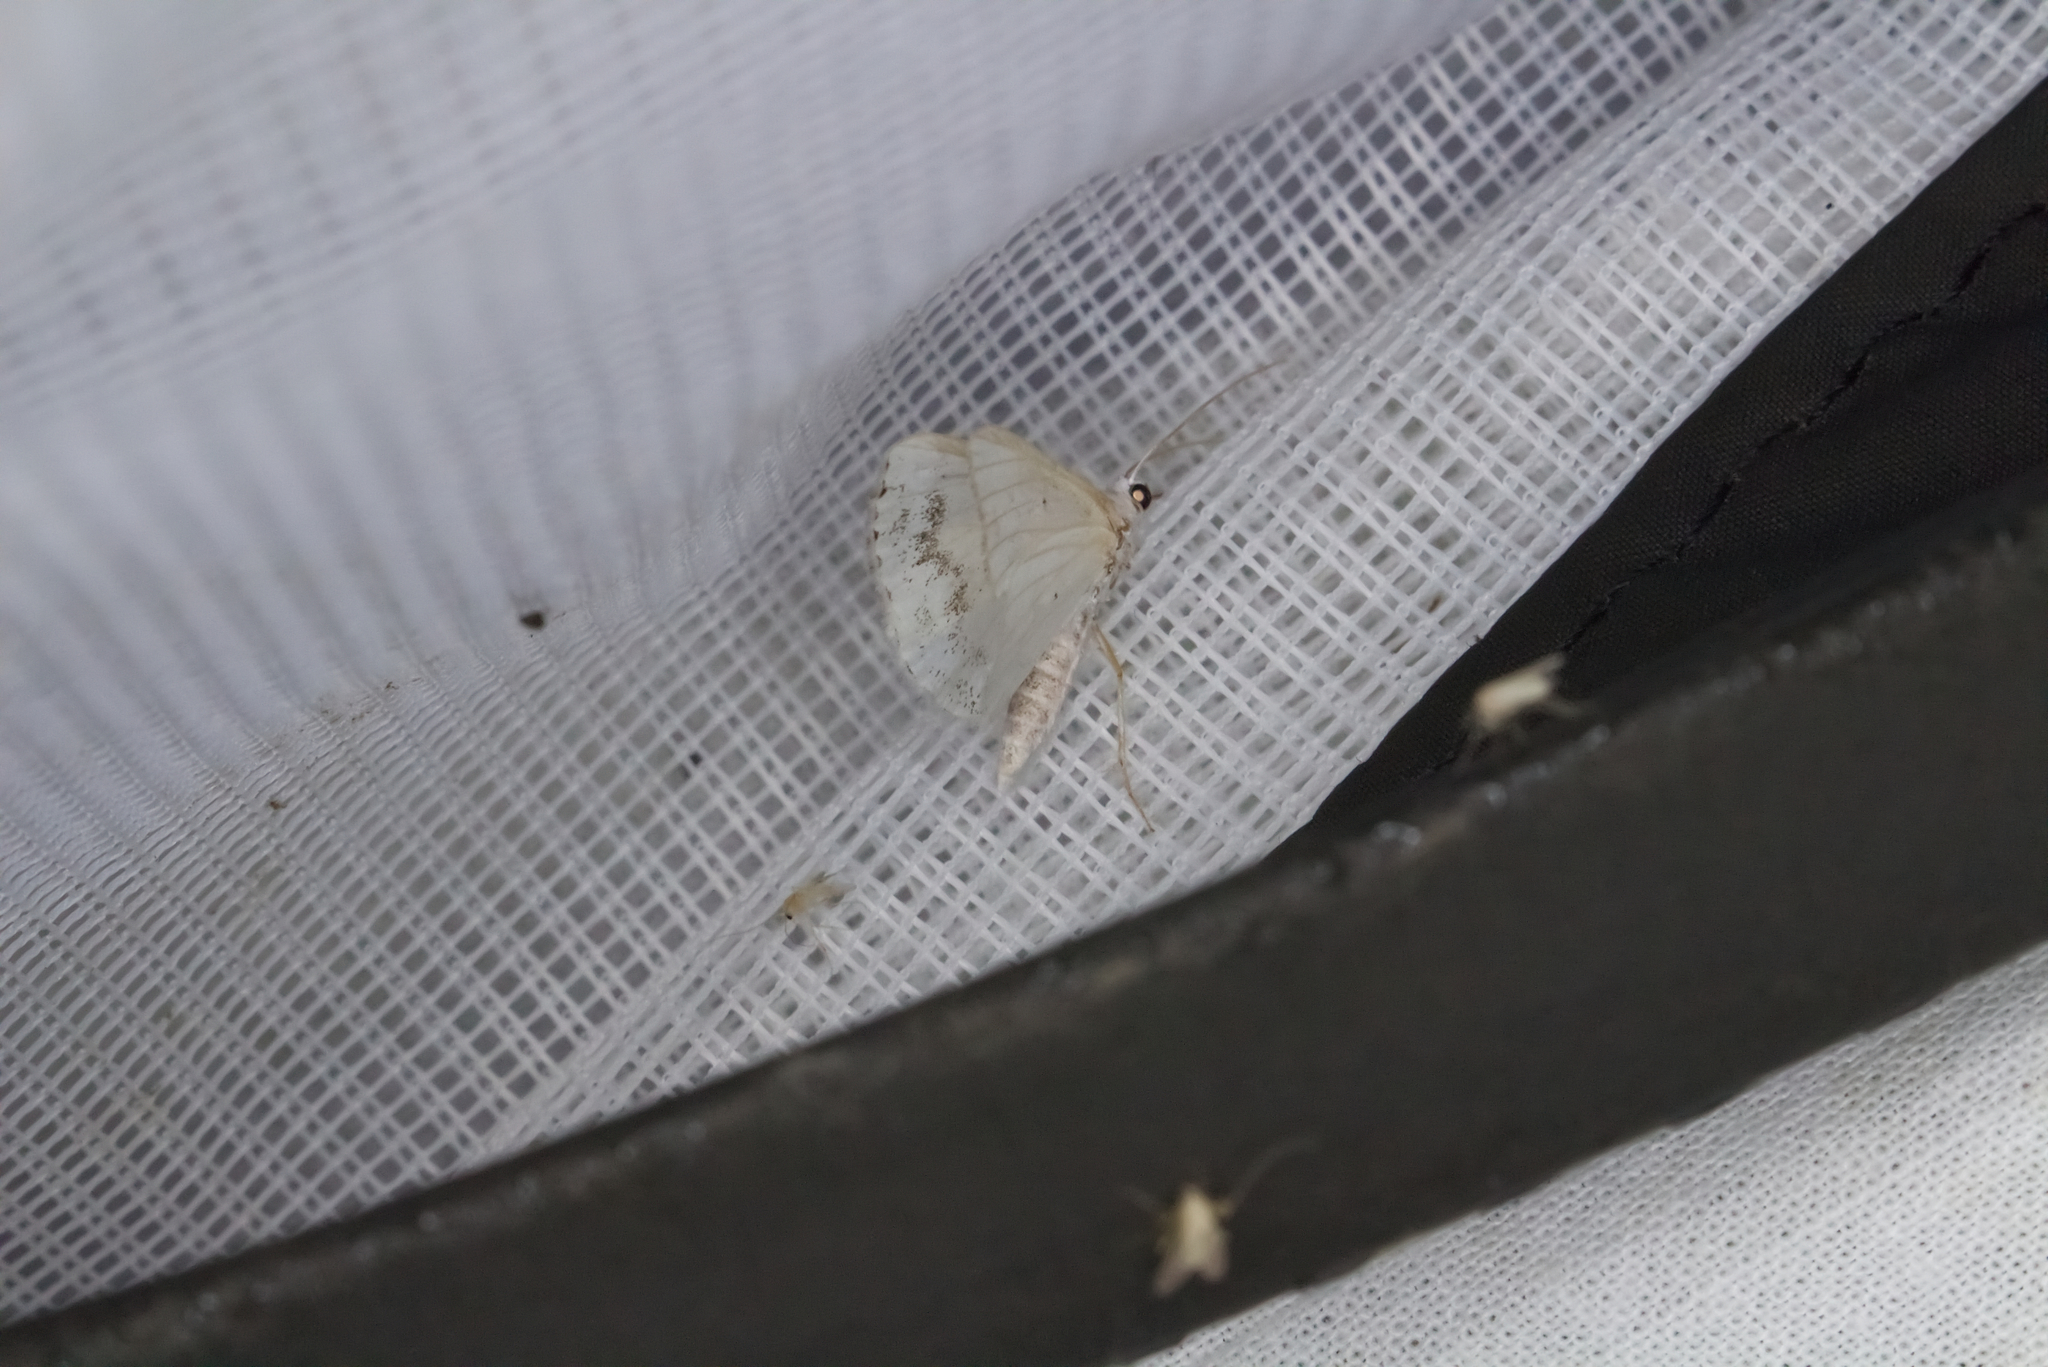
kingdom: Animalia
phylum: Arthropoda
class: Insecta
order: Lepidoptera
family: Geometridae
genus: Lomographa
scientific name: Lomographa temerata
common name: Clouded silver
